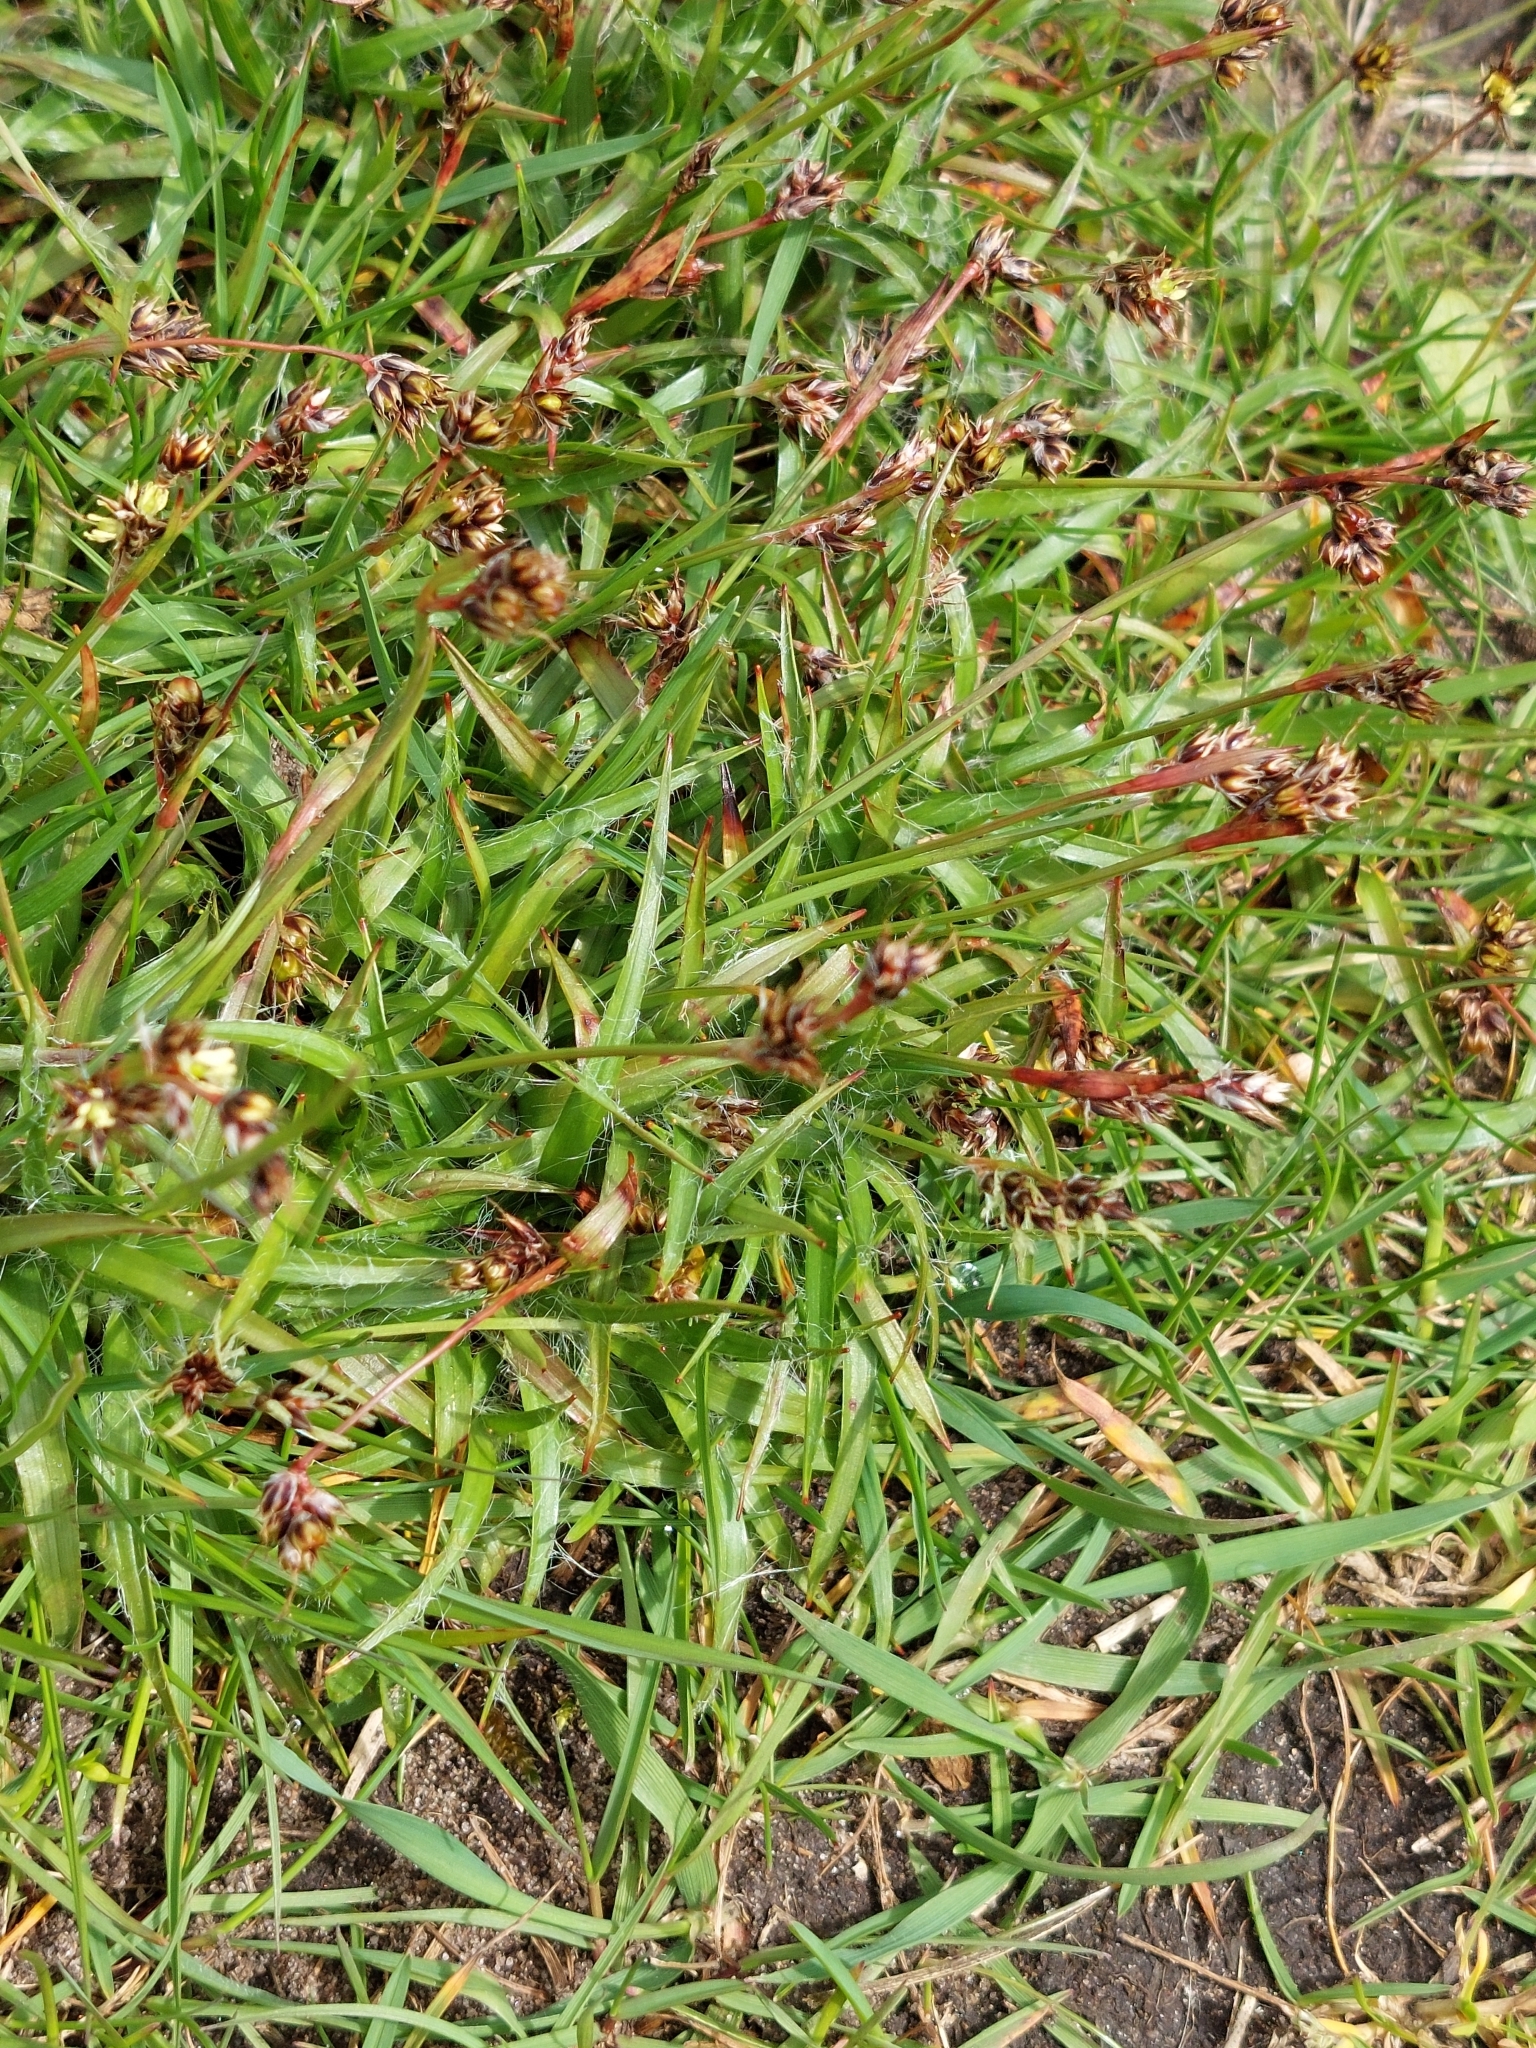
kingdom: Plantae
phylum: Tracheophyta
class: Liliopsida
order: Poales
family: Juncaceae
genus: Luzula
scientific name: Luzula campestris
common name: Field wood-rush
